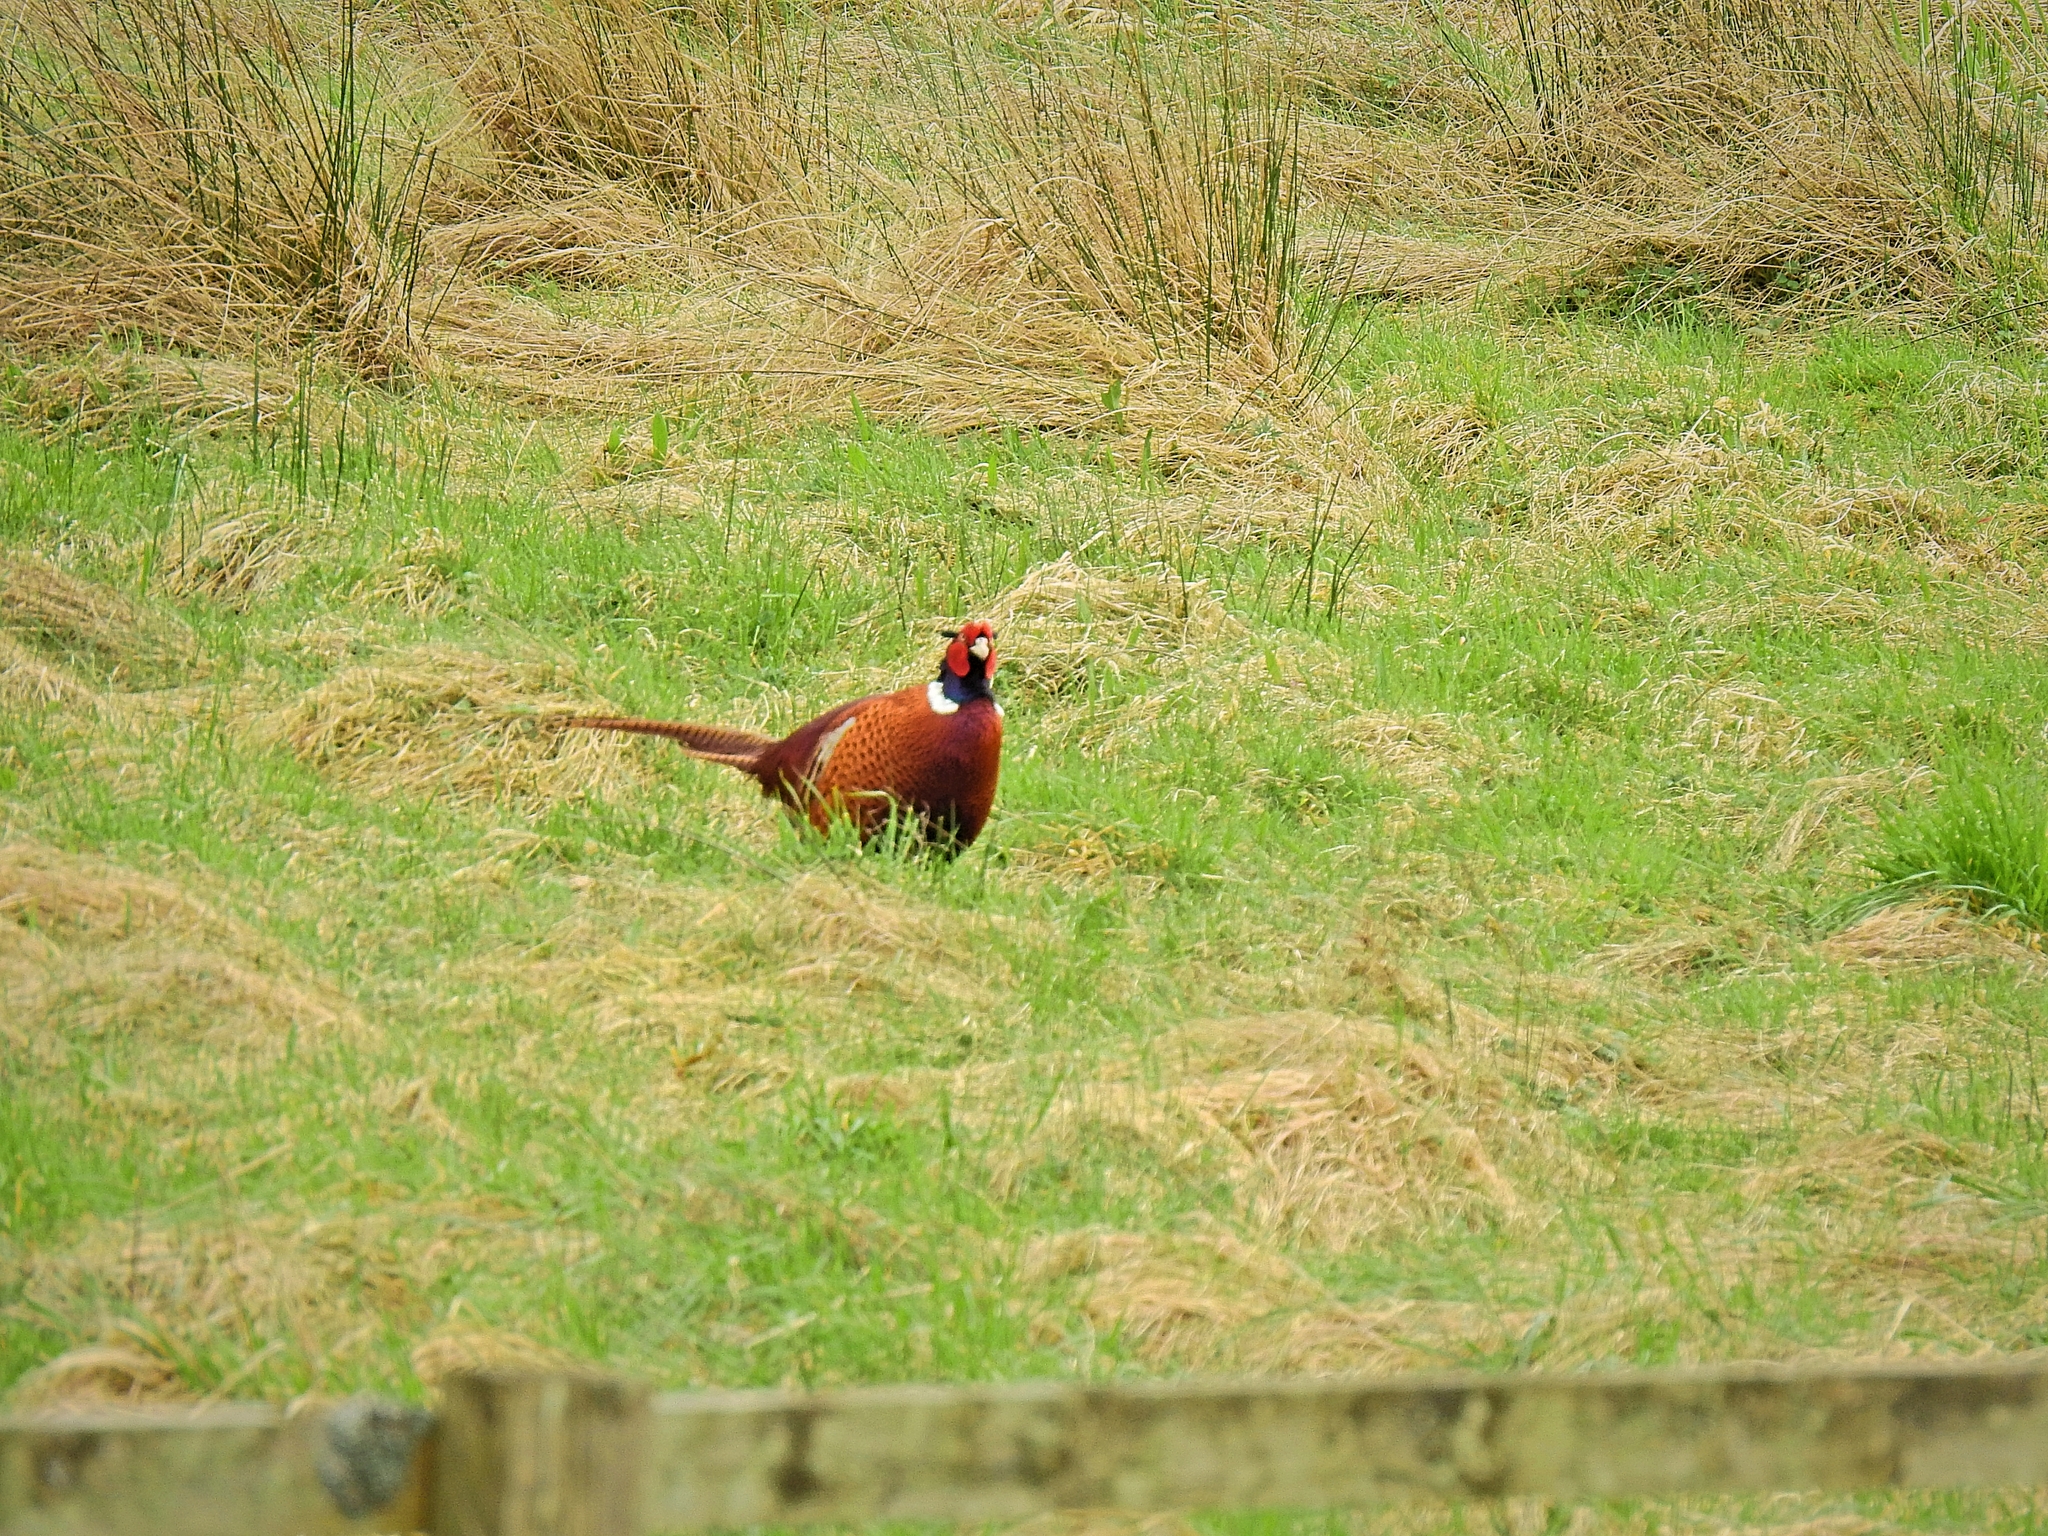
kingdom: Animalia
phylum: Chordata
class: Aves
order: Galliformes
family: Phasianidae
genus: Phasianus
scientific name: Phasianus colchicus
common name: Common pheasant
